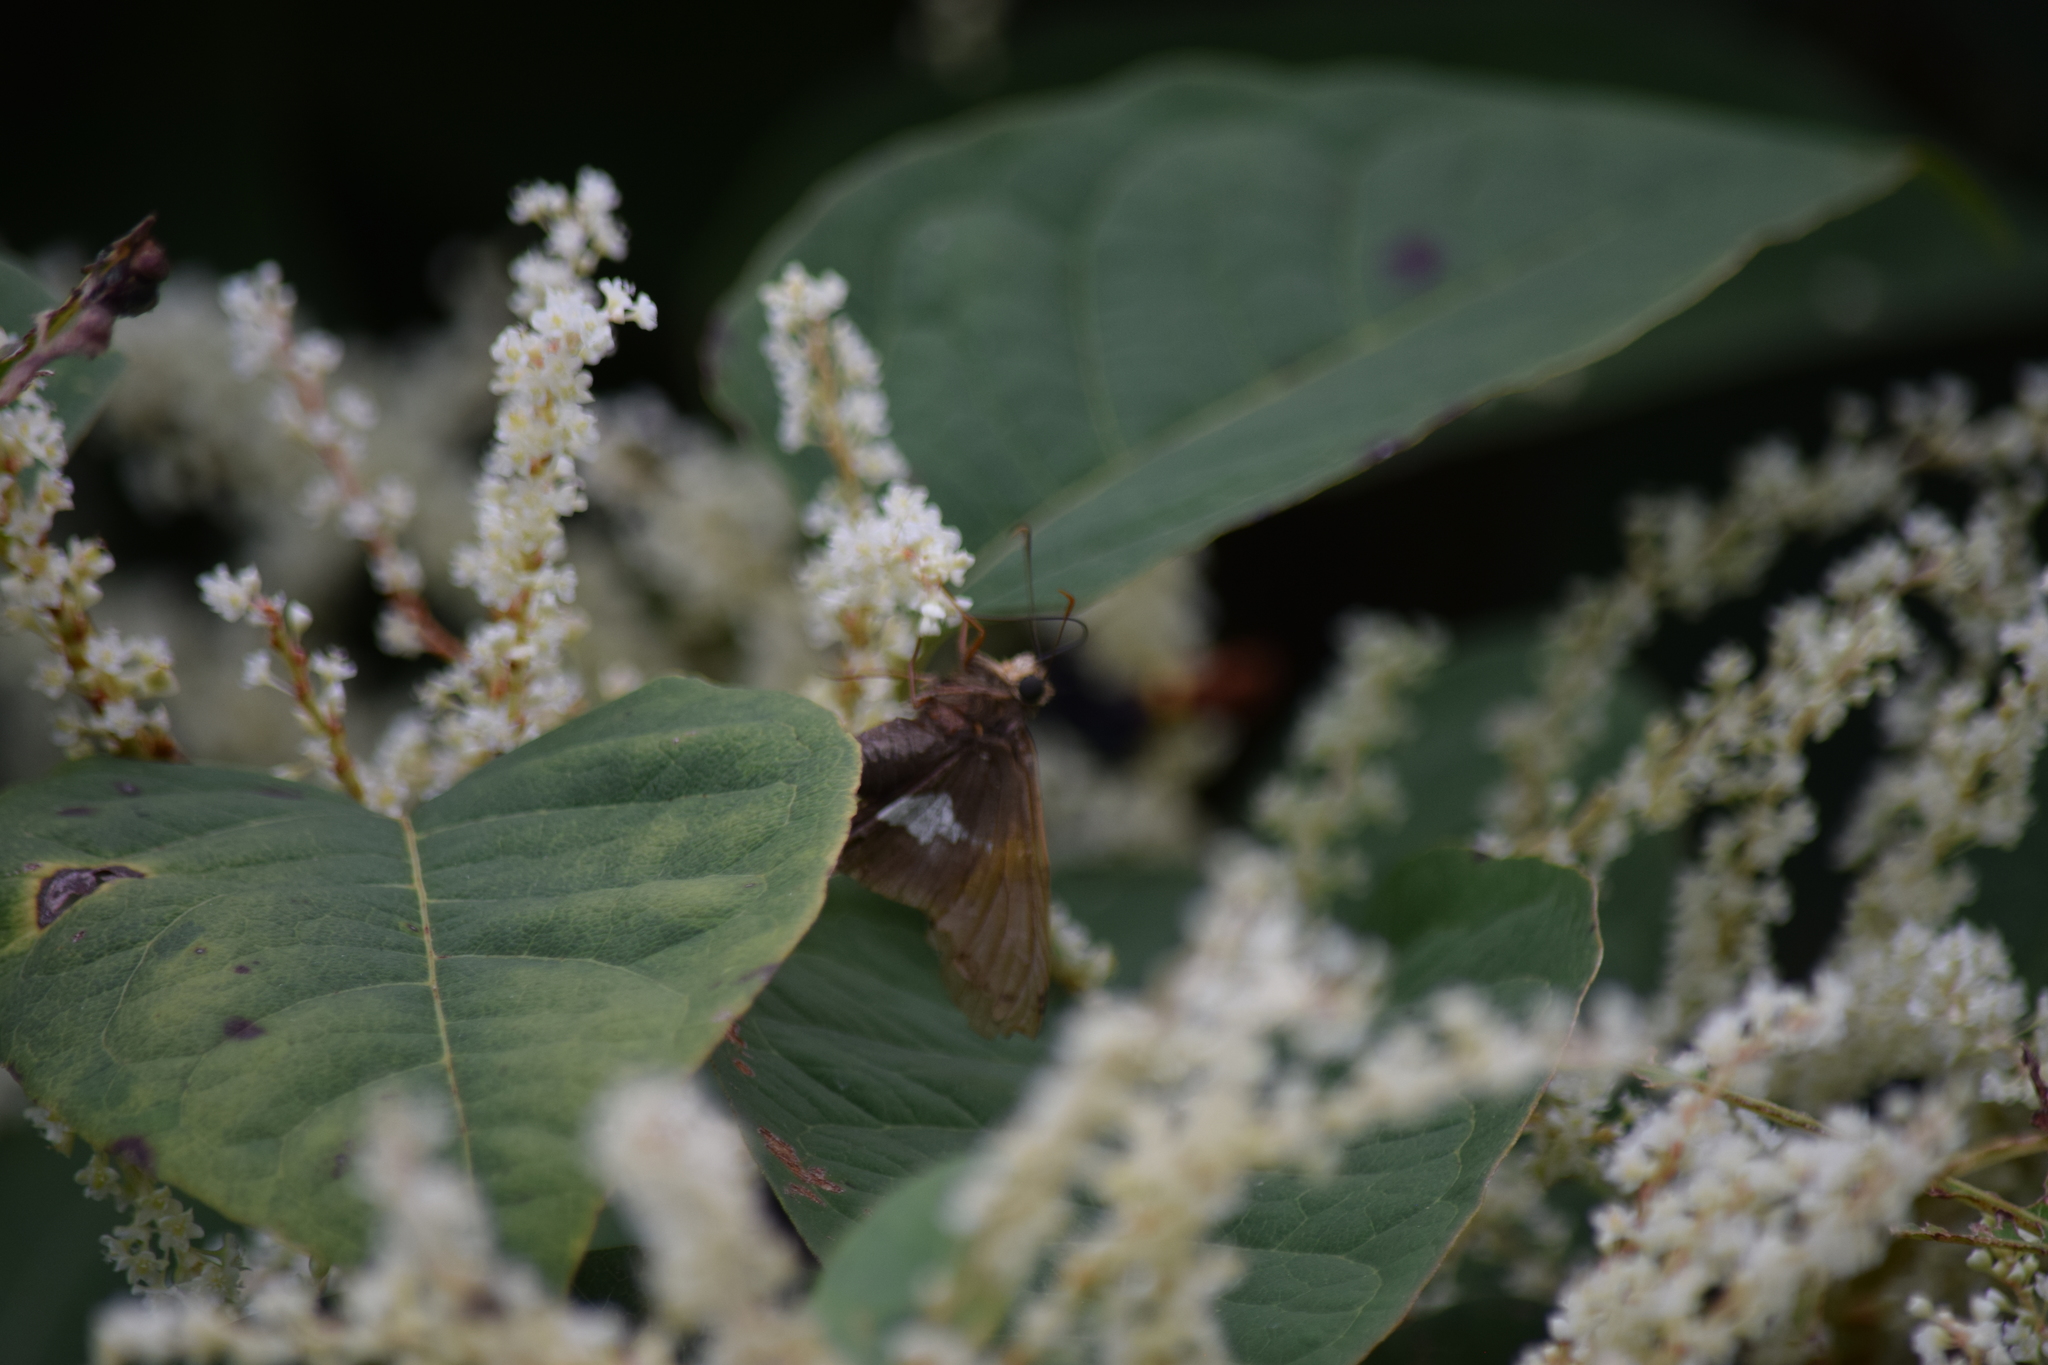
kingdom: Animalia
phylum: Arthropoda
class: Insecta
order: Lepidoptera
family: Hesperiidae
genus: Epargyreus
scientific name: Epargyreus clarus
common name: Silver-spotted skipper
